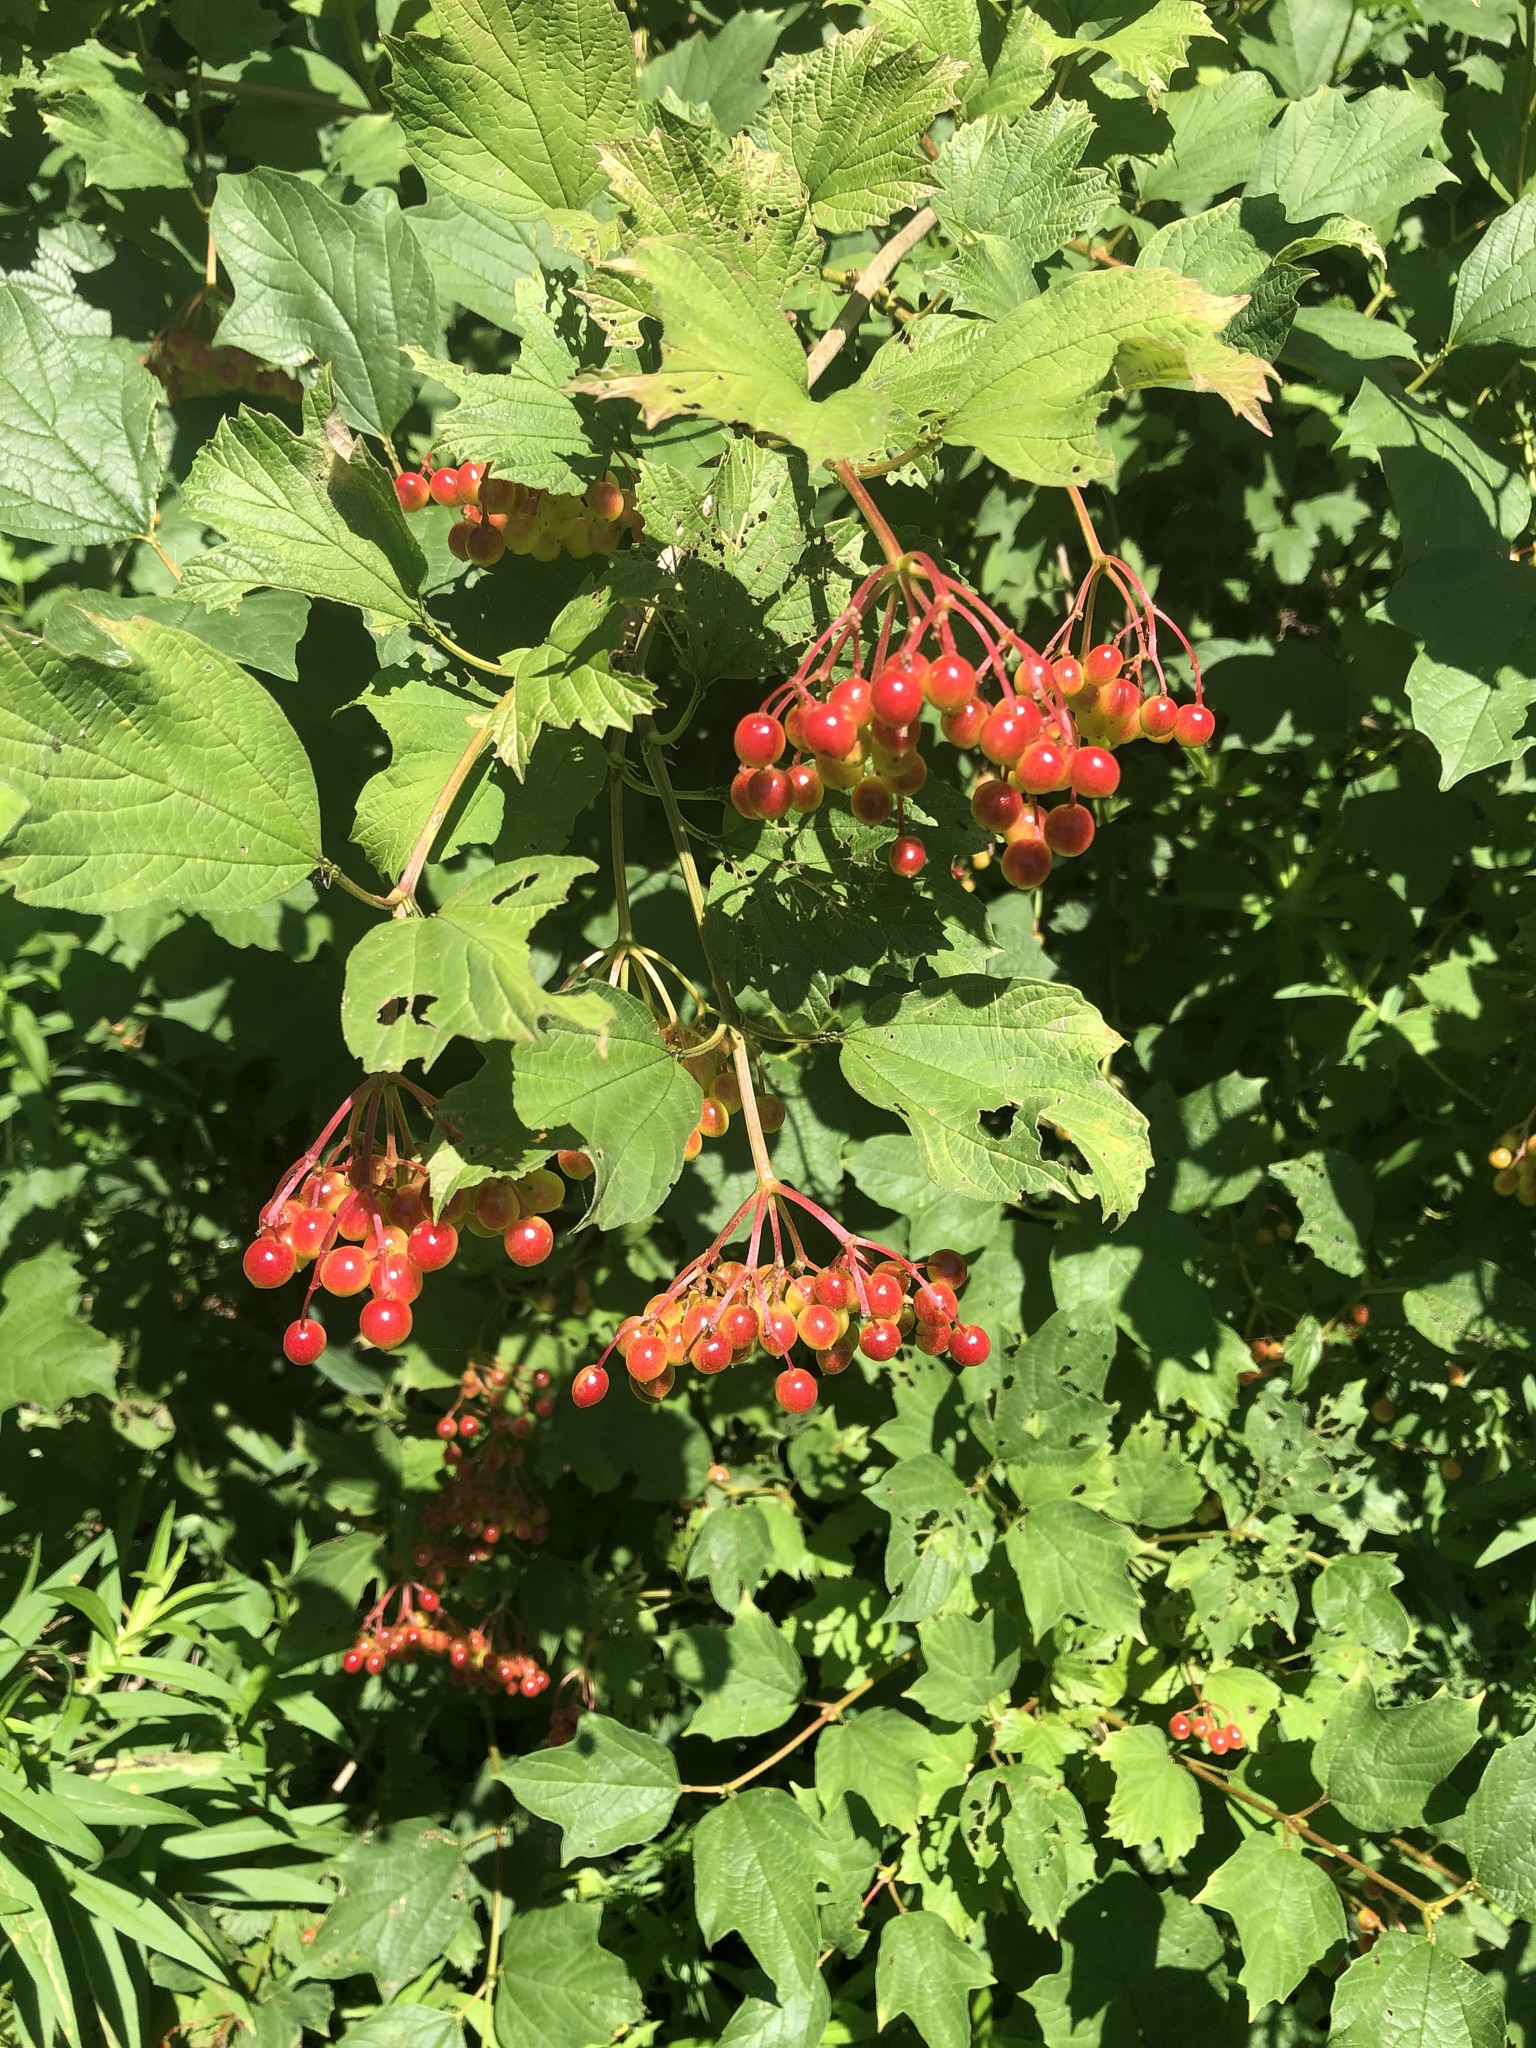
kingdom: Plantae
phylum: Tracheophyta
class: Magnoliopsida
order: Dipsacales
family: Viburnaceae
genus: Viburnum
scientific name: Viburnum opulus
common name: Guelder-rose
